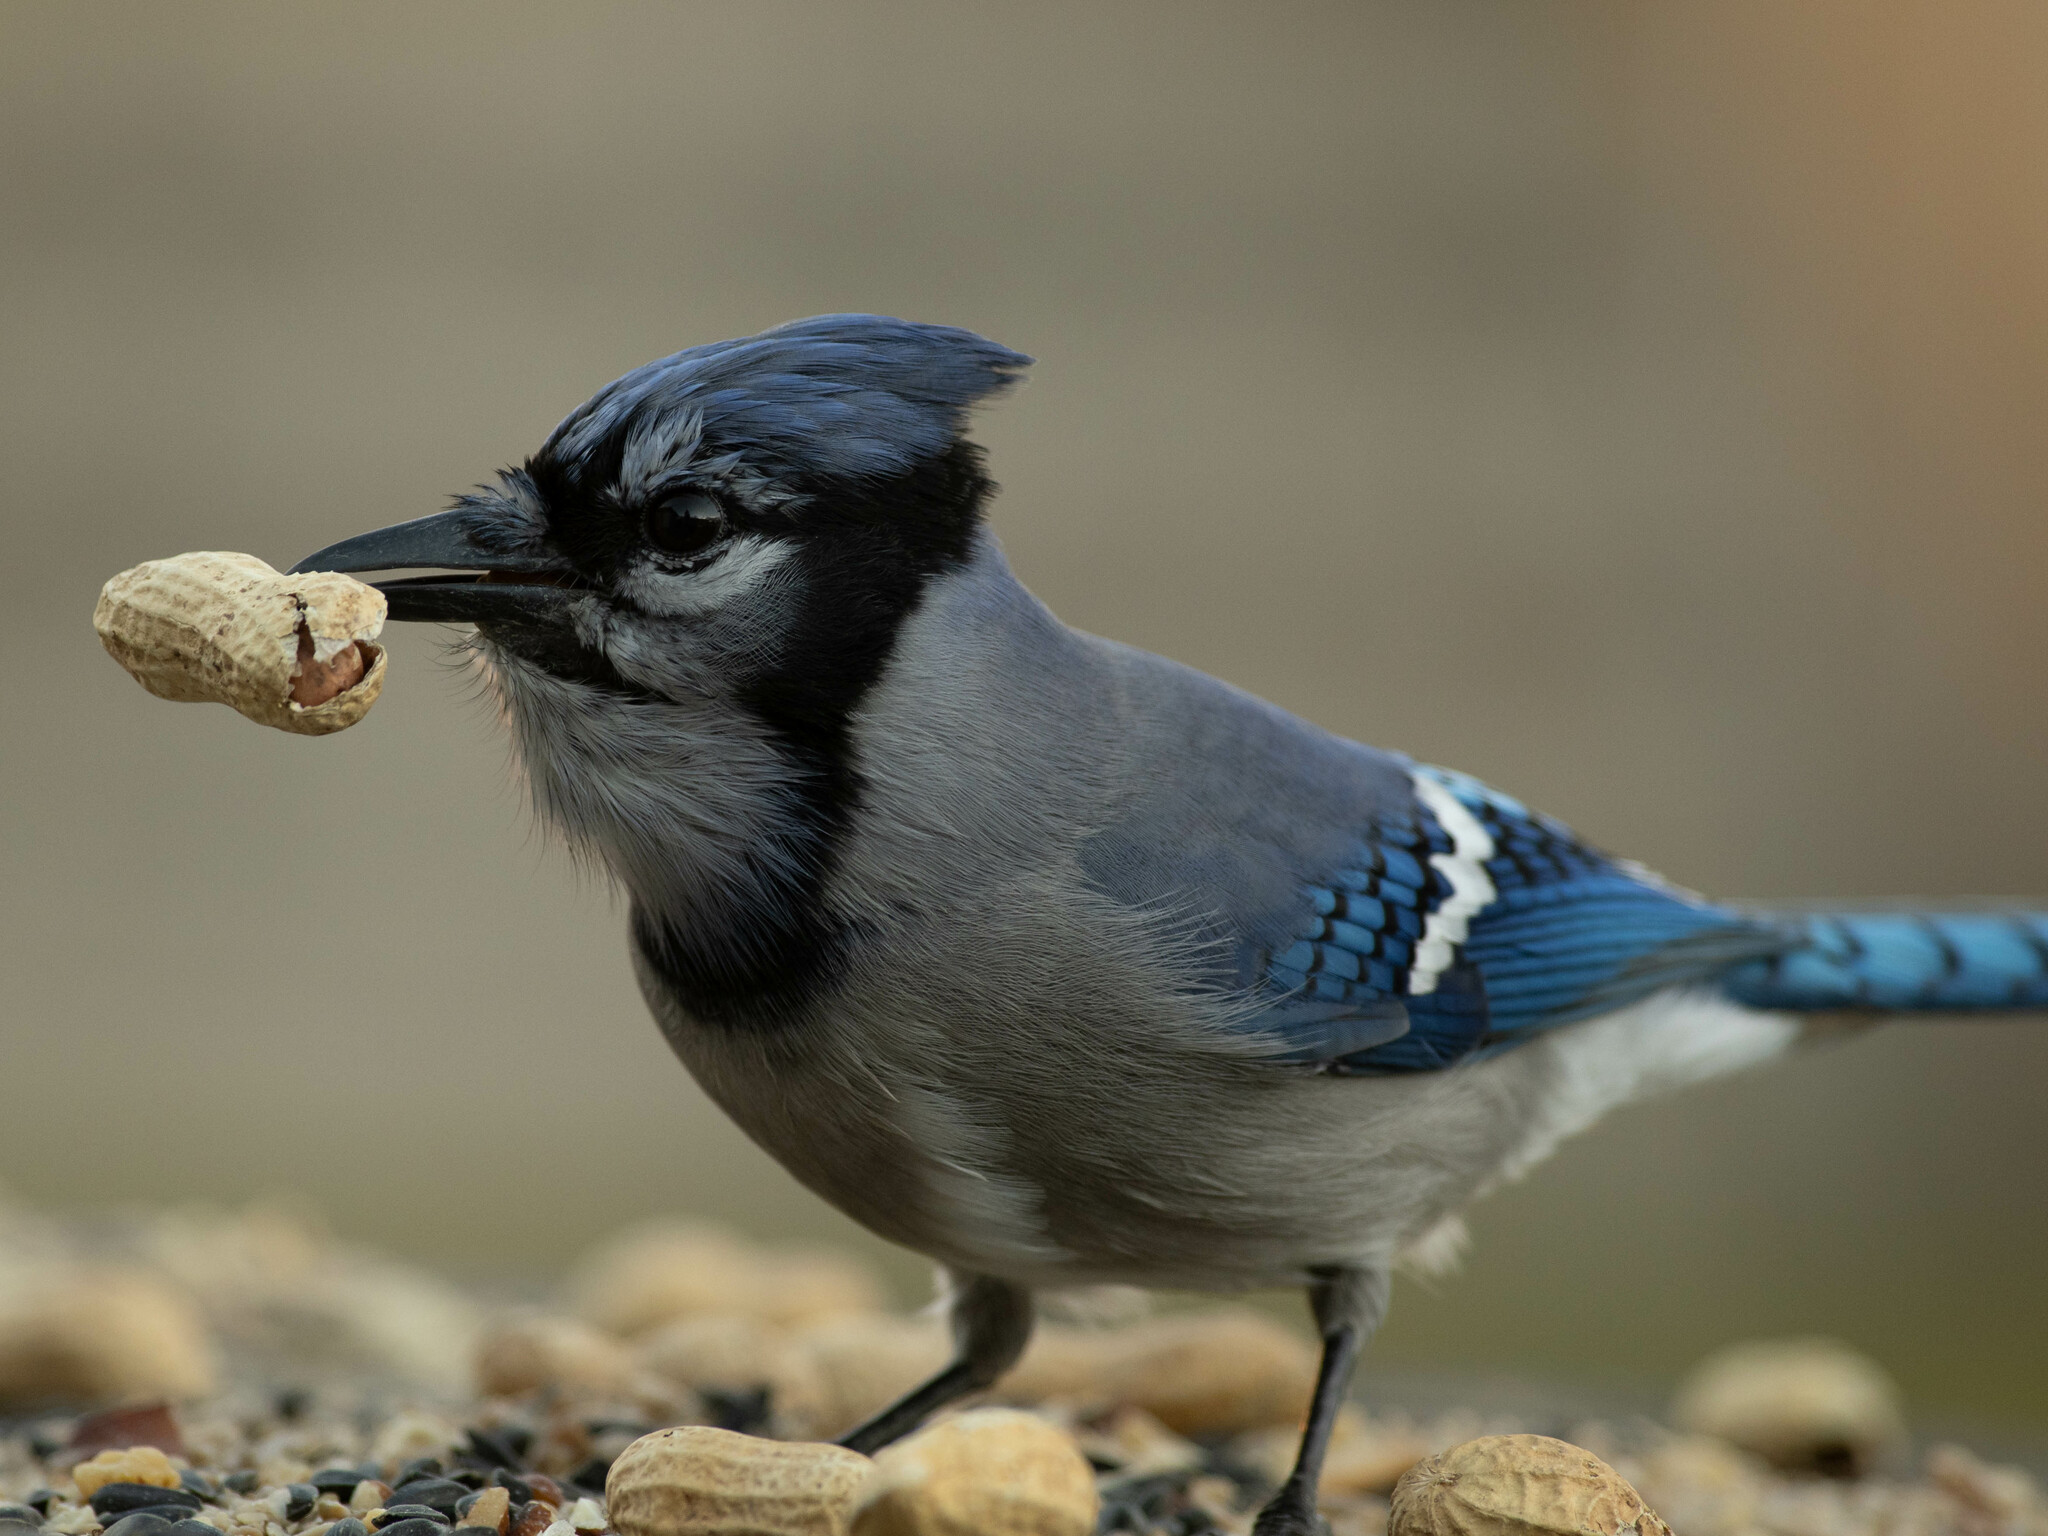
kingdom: Animalia
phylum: Chordata
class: Aves
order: Passeriformes
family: Corvidae
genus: Cyanocitta
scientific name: Cyanocitta cristata
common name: Blue jay
